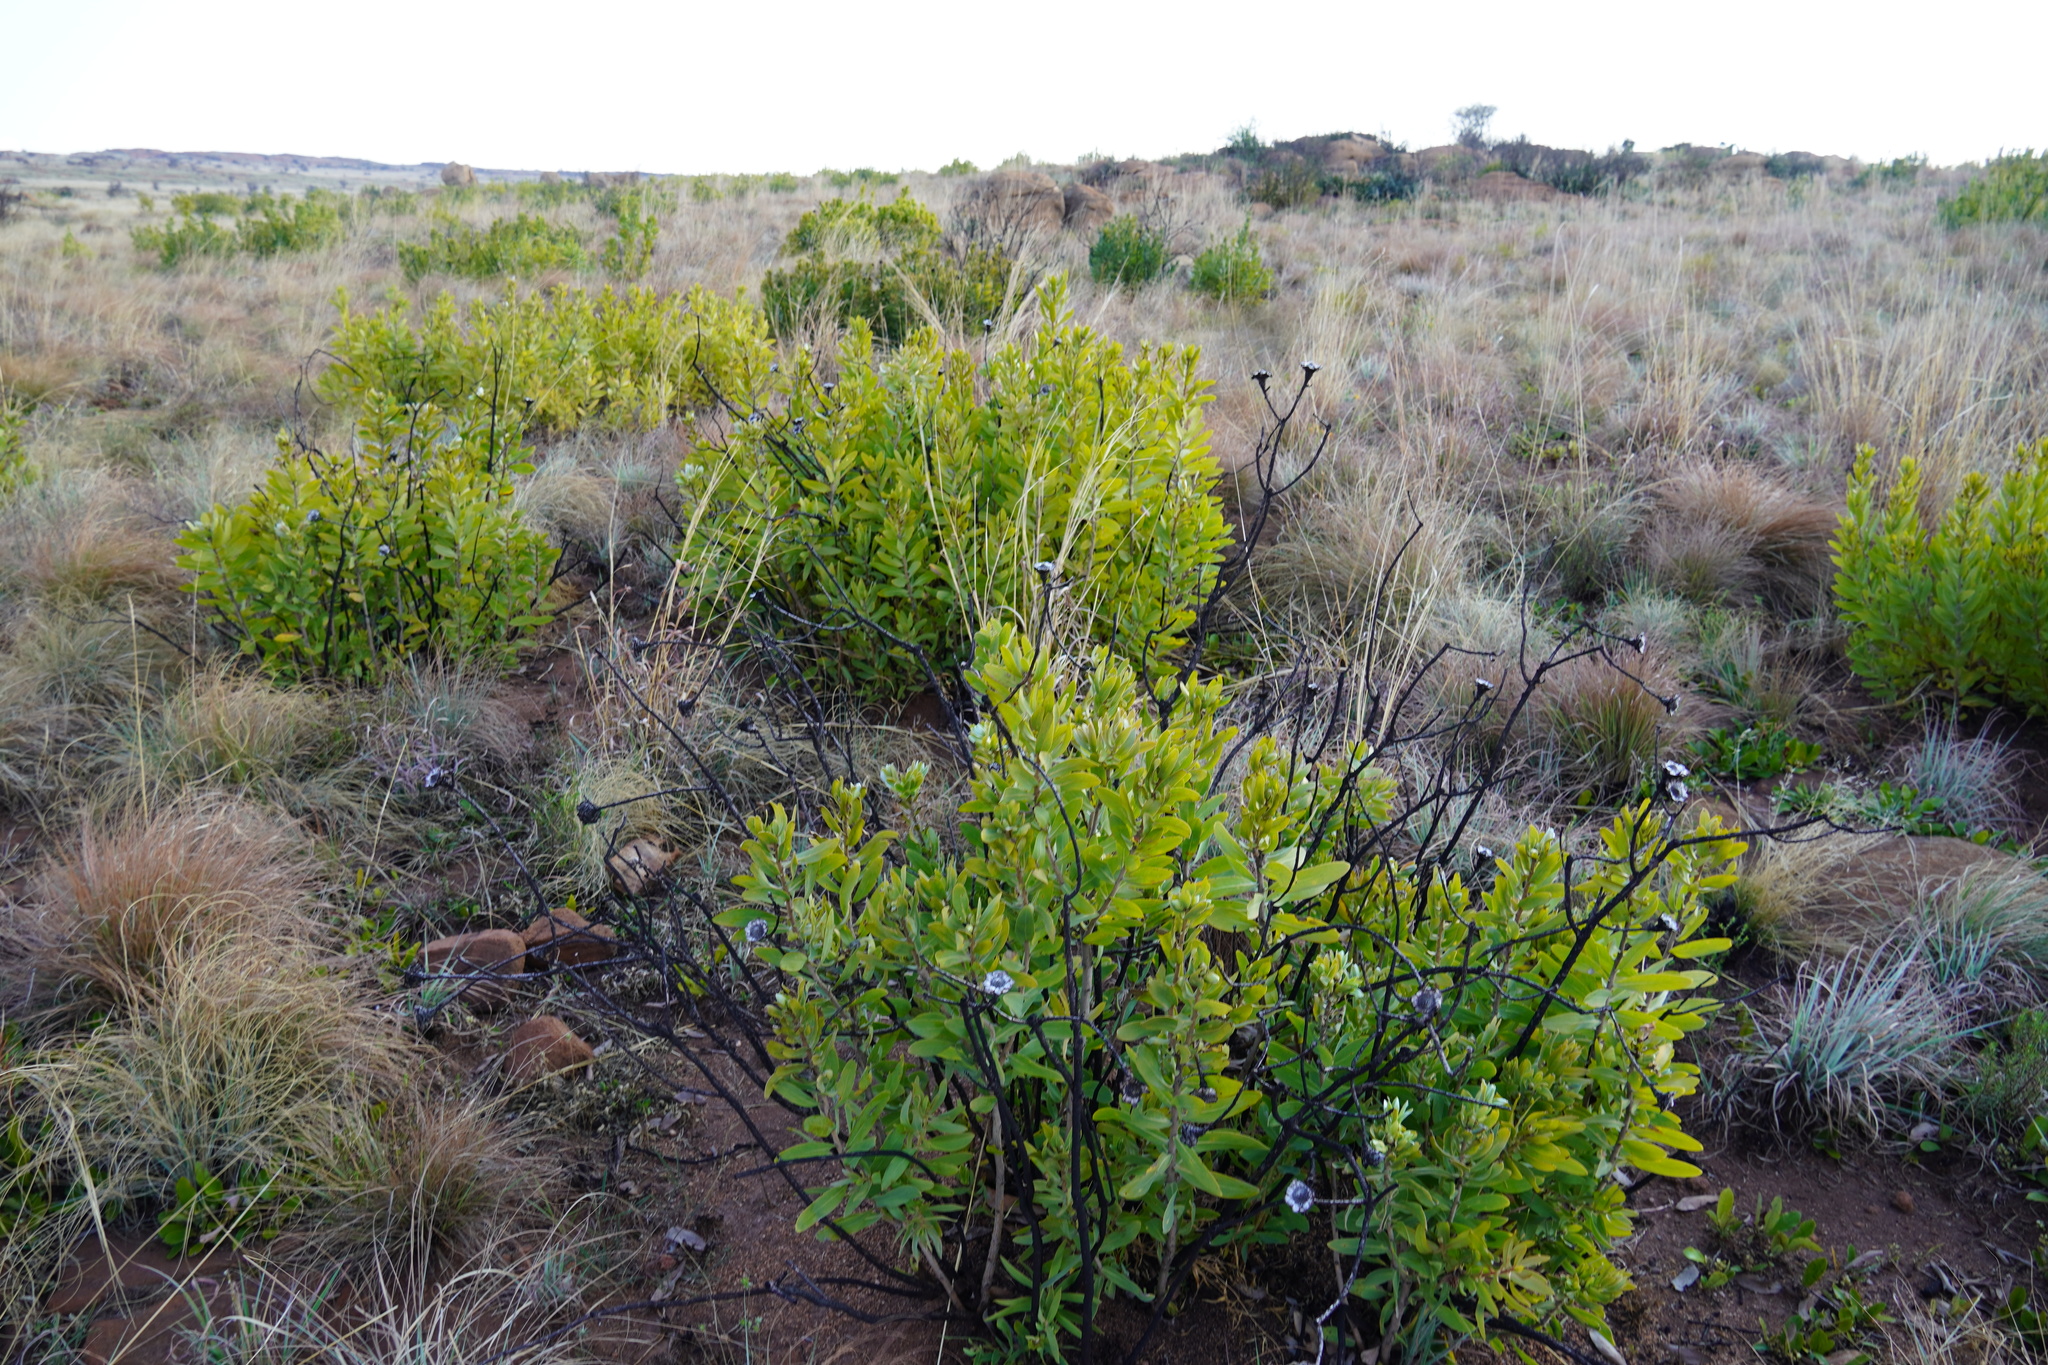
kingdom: Plantae
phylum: Tracheophyta
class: Magnoliopsida
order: Proteales
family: Proteaceae
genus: Protea
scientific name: Protea welwitschii
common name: Cluster-head protea
